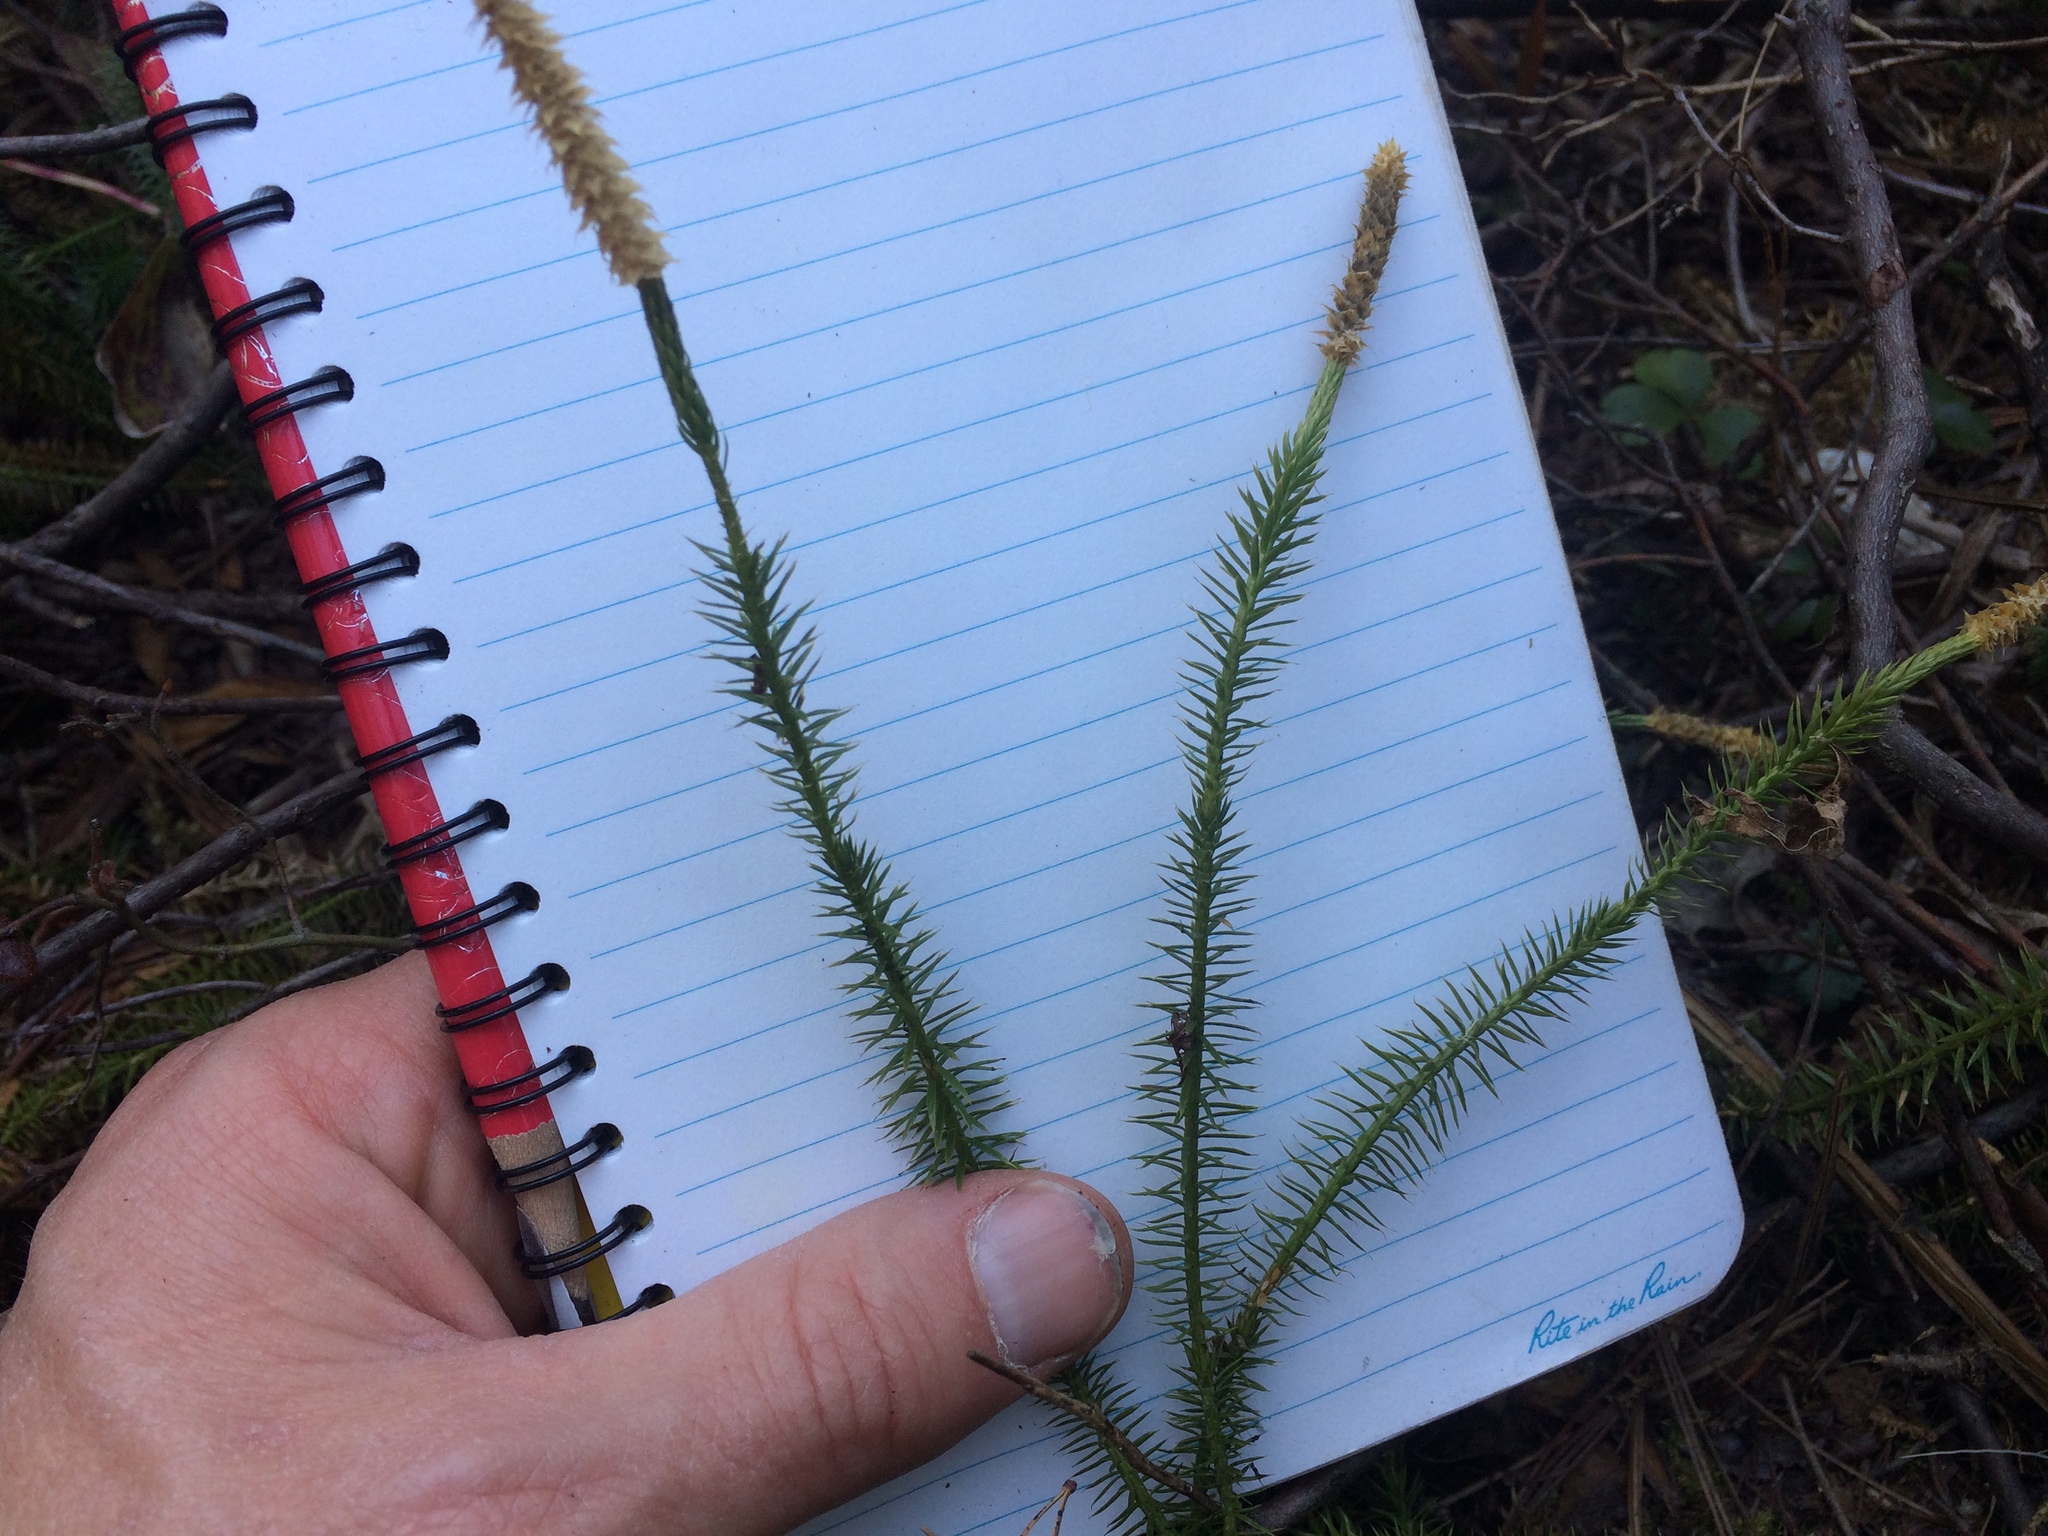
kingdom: Plantae
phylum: Tracheophyta
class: Lycopodiopsida
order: Lycopodiales
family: Lycopodiaceae
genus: Spinulum
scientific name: Spinulum annotinum
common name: Interrupted club-moss
